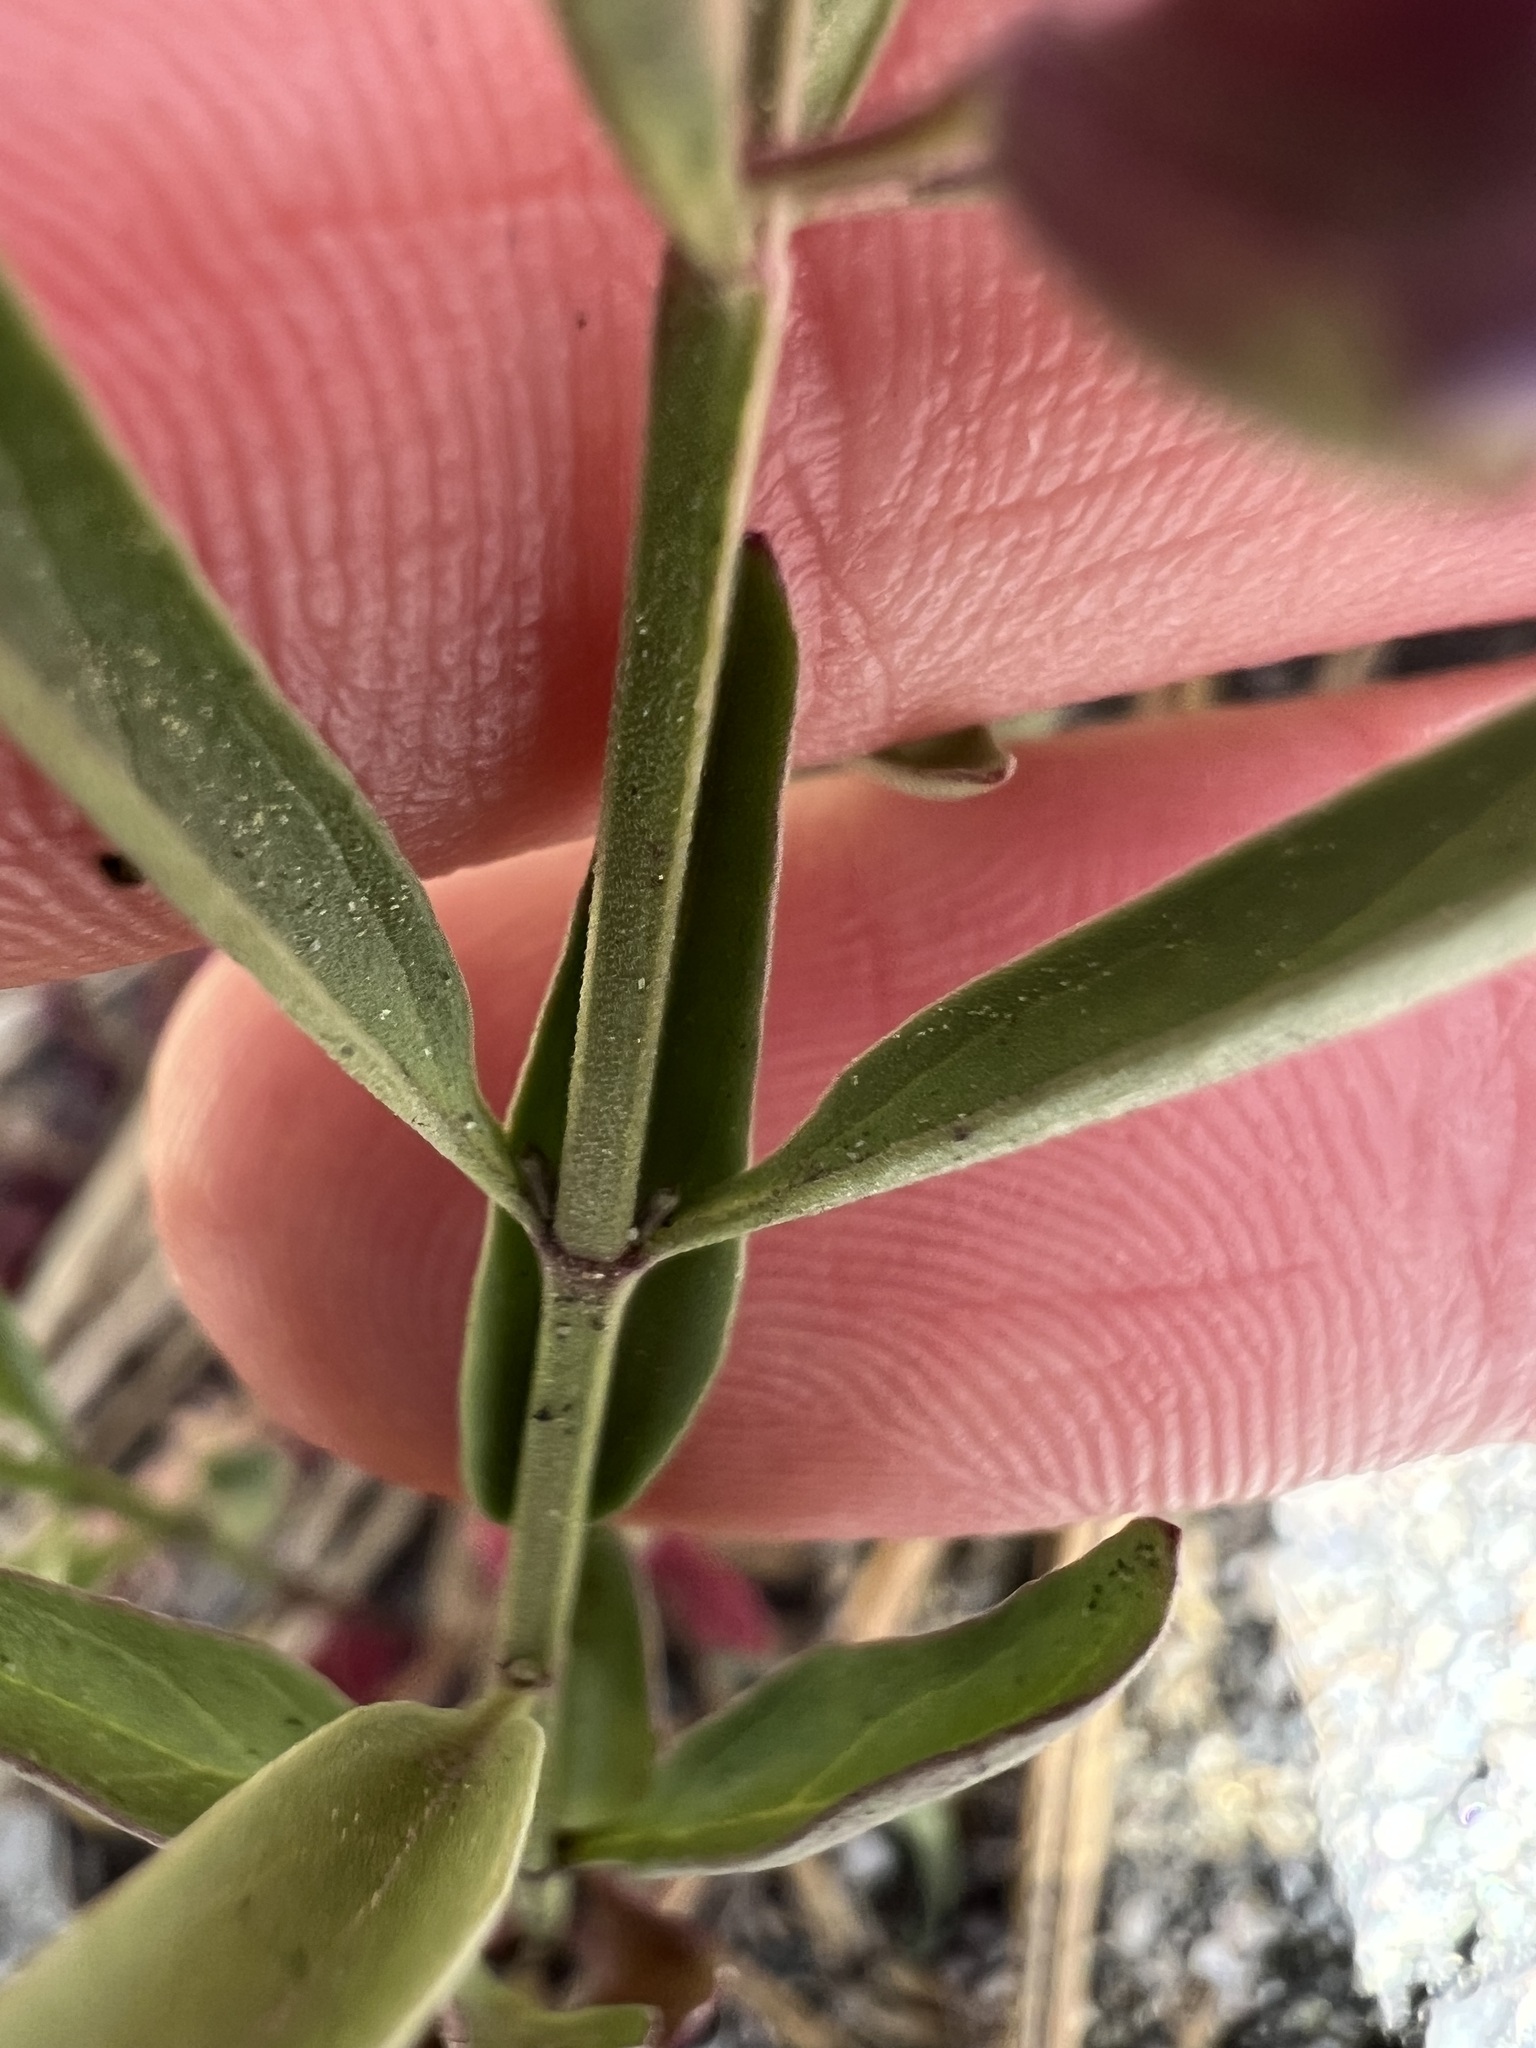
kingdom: Plantae
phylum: Tracheophyta
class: Magnoliopsida
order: Lamiales
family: Lamiaceae
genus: Scutellaria
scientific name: Scutellaria siphocampyloides
